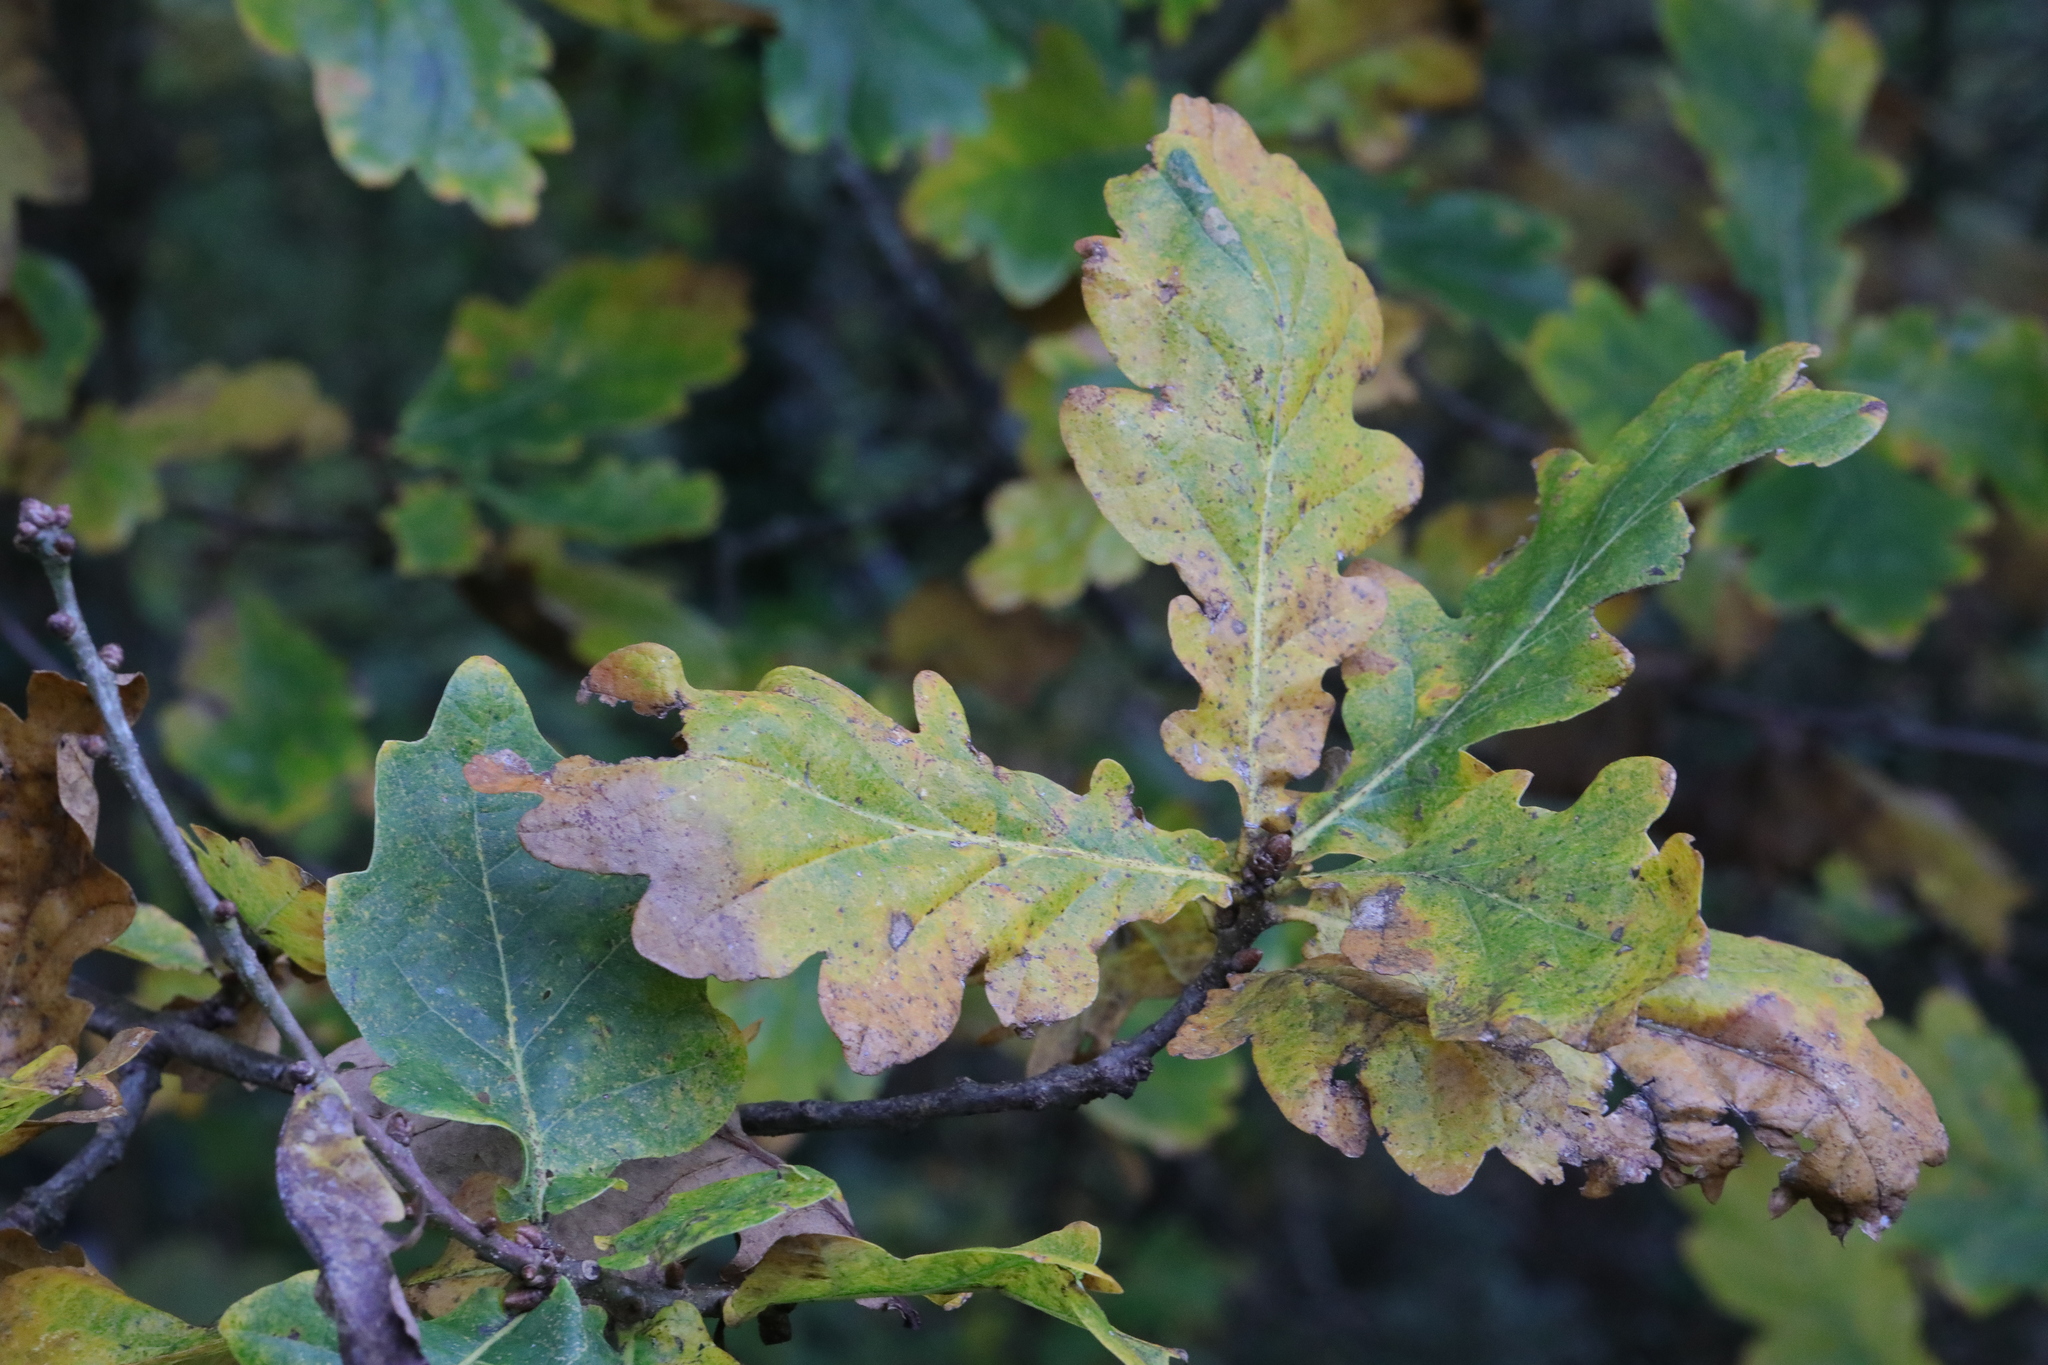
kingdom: Plantae
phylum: Tracheophyta
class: Magnoliopsida
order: Fagales
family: Fagaceae
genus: Quercus
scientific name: Quercus robur
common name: Pedunculate oak
